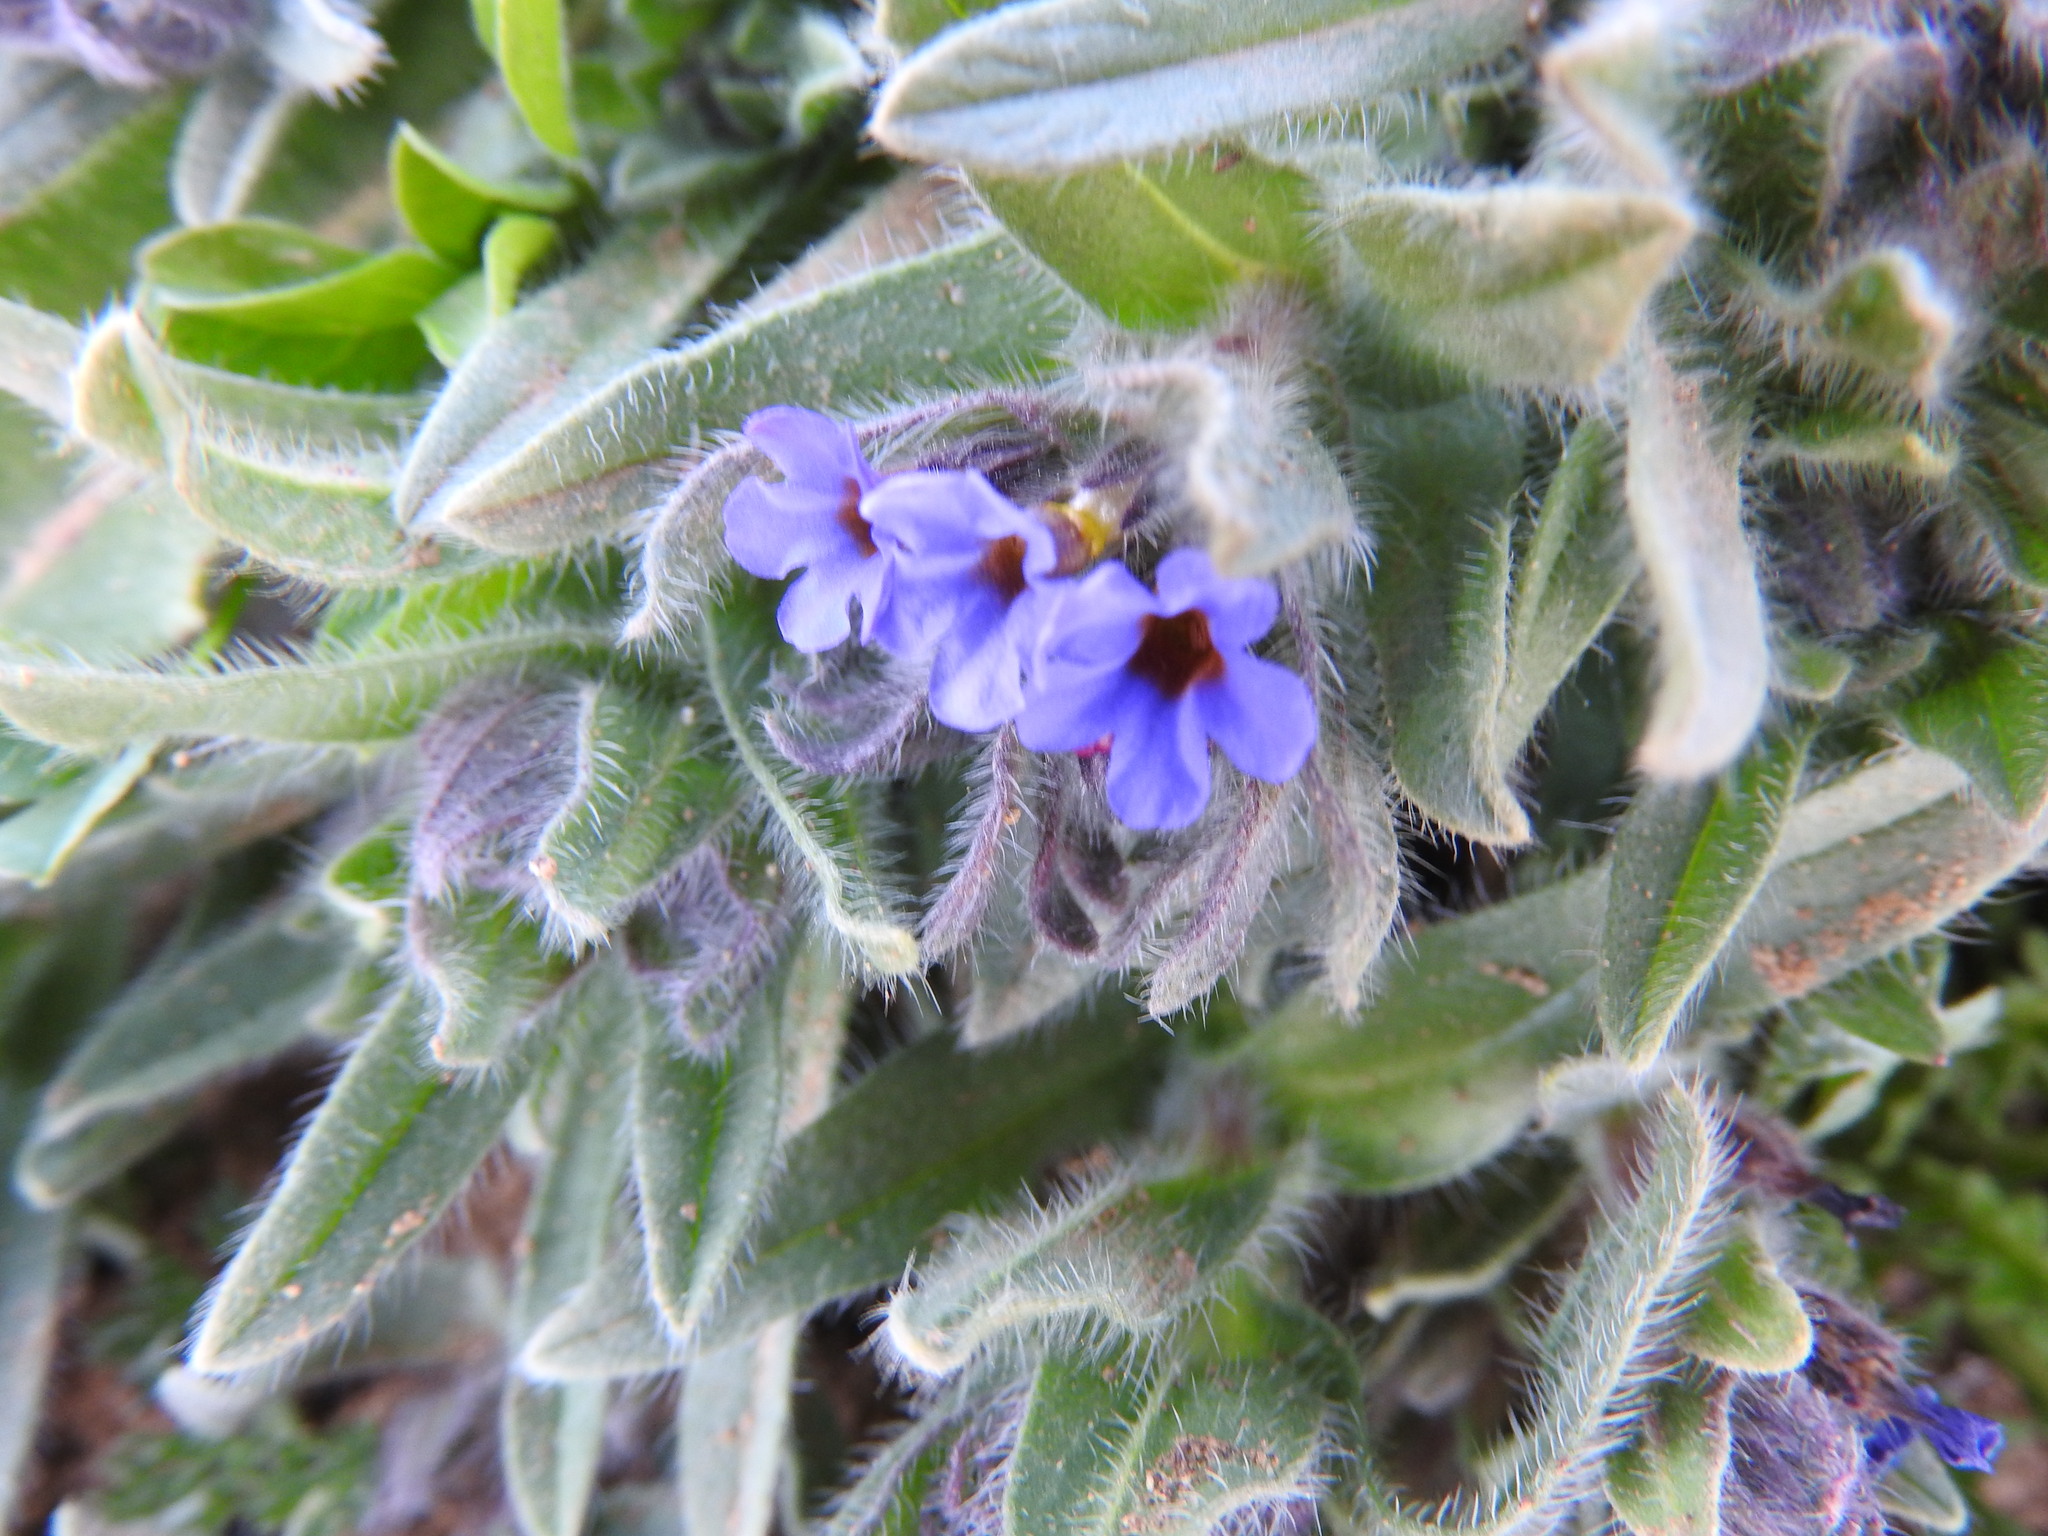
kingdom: Plantae
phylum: Tracheophyta
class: Magnoliopsida
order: Boraginales
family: Boraginaceae
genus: Alkanna
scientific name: Alkanna tinctoria
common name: Dyer's-alkanet
